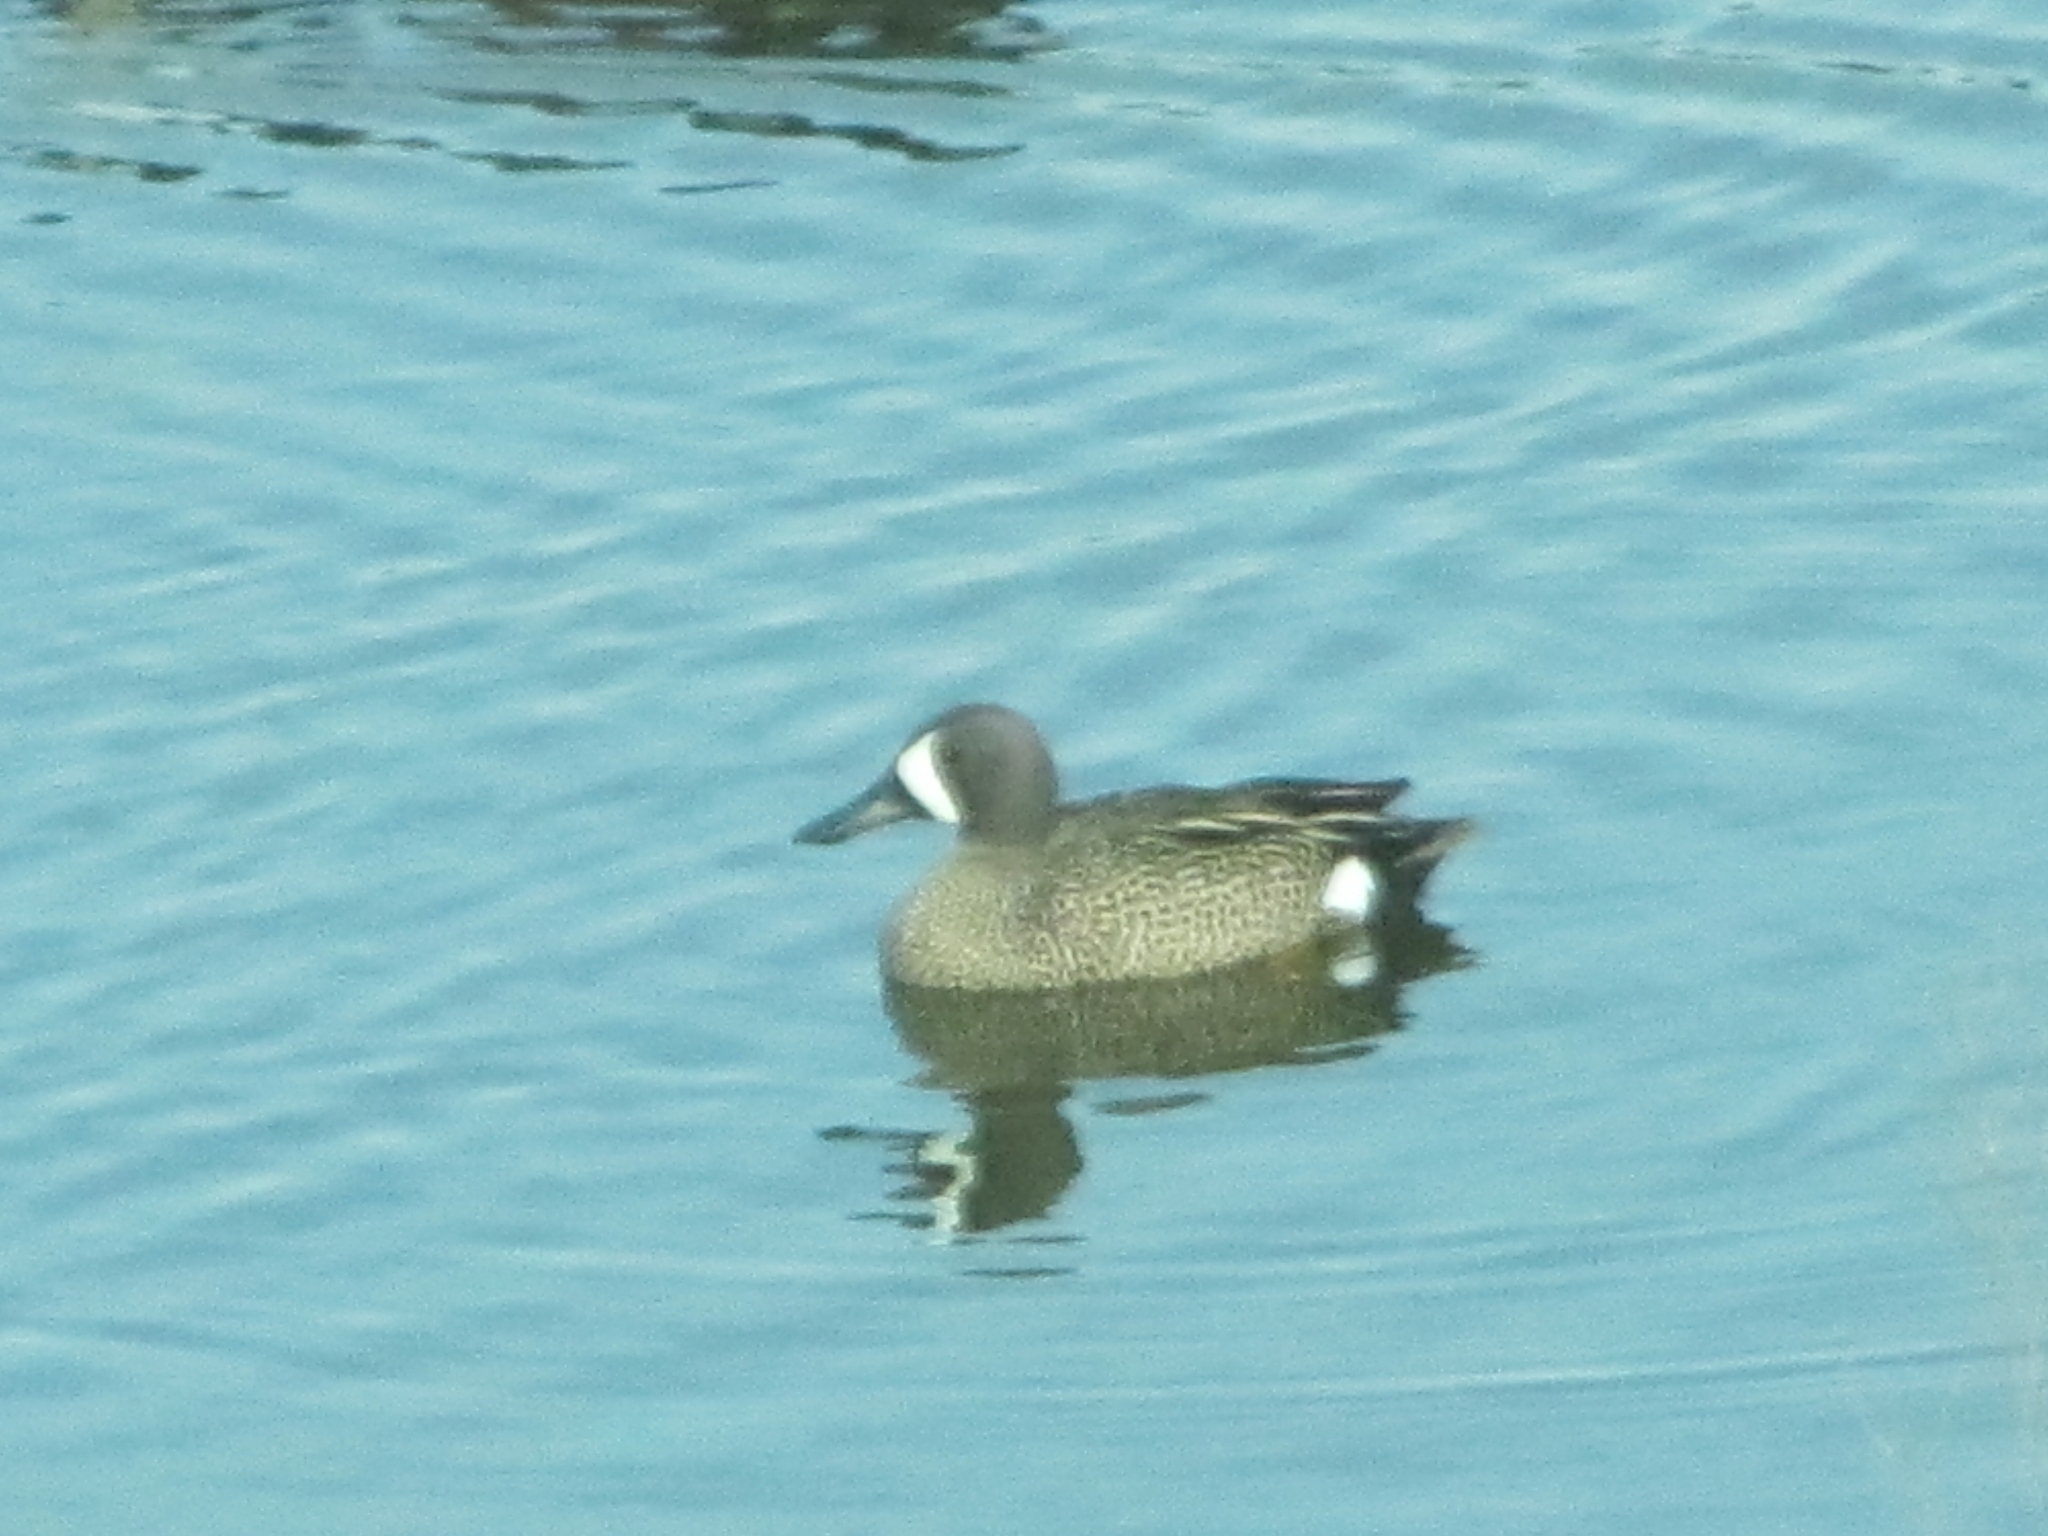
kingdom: Animalia
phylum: Chordata
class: Aves
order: Anseriformes
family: Anatidae
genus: Spatula
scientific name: Spatula discors
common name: Blue-winged teal
